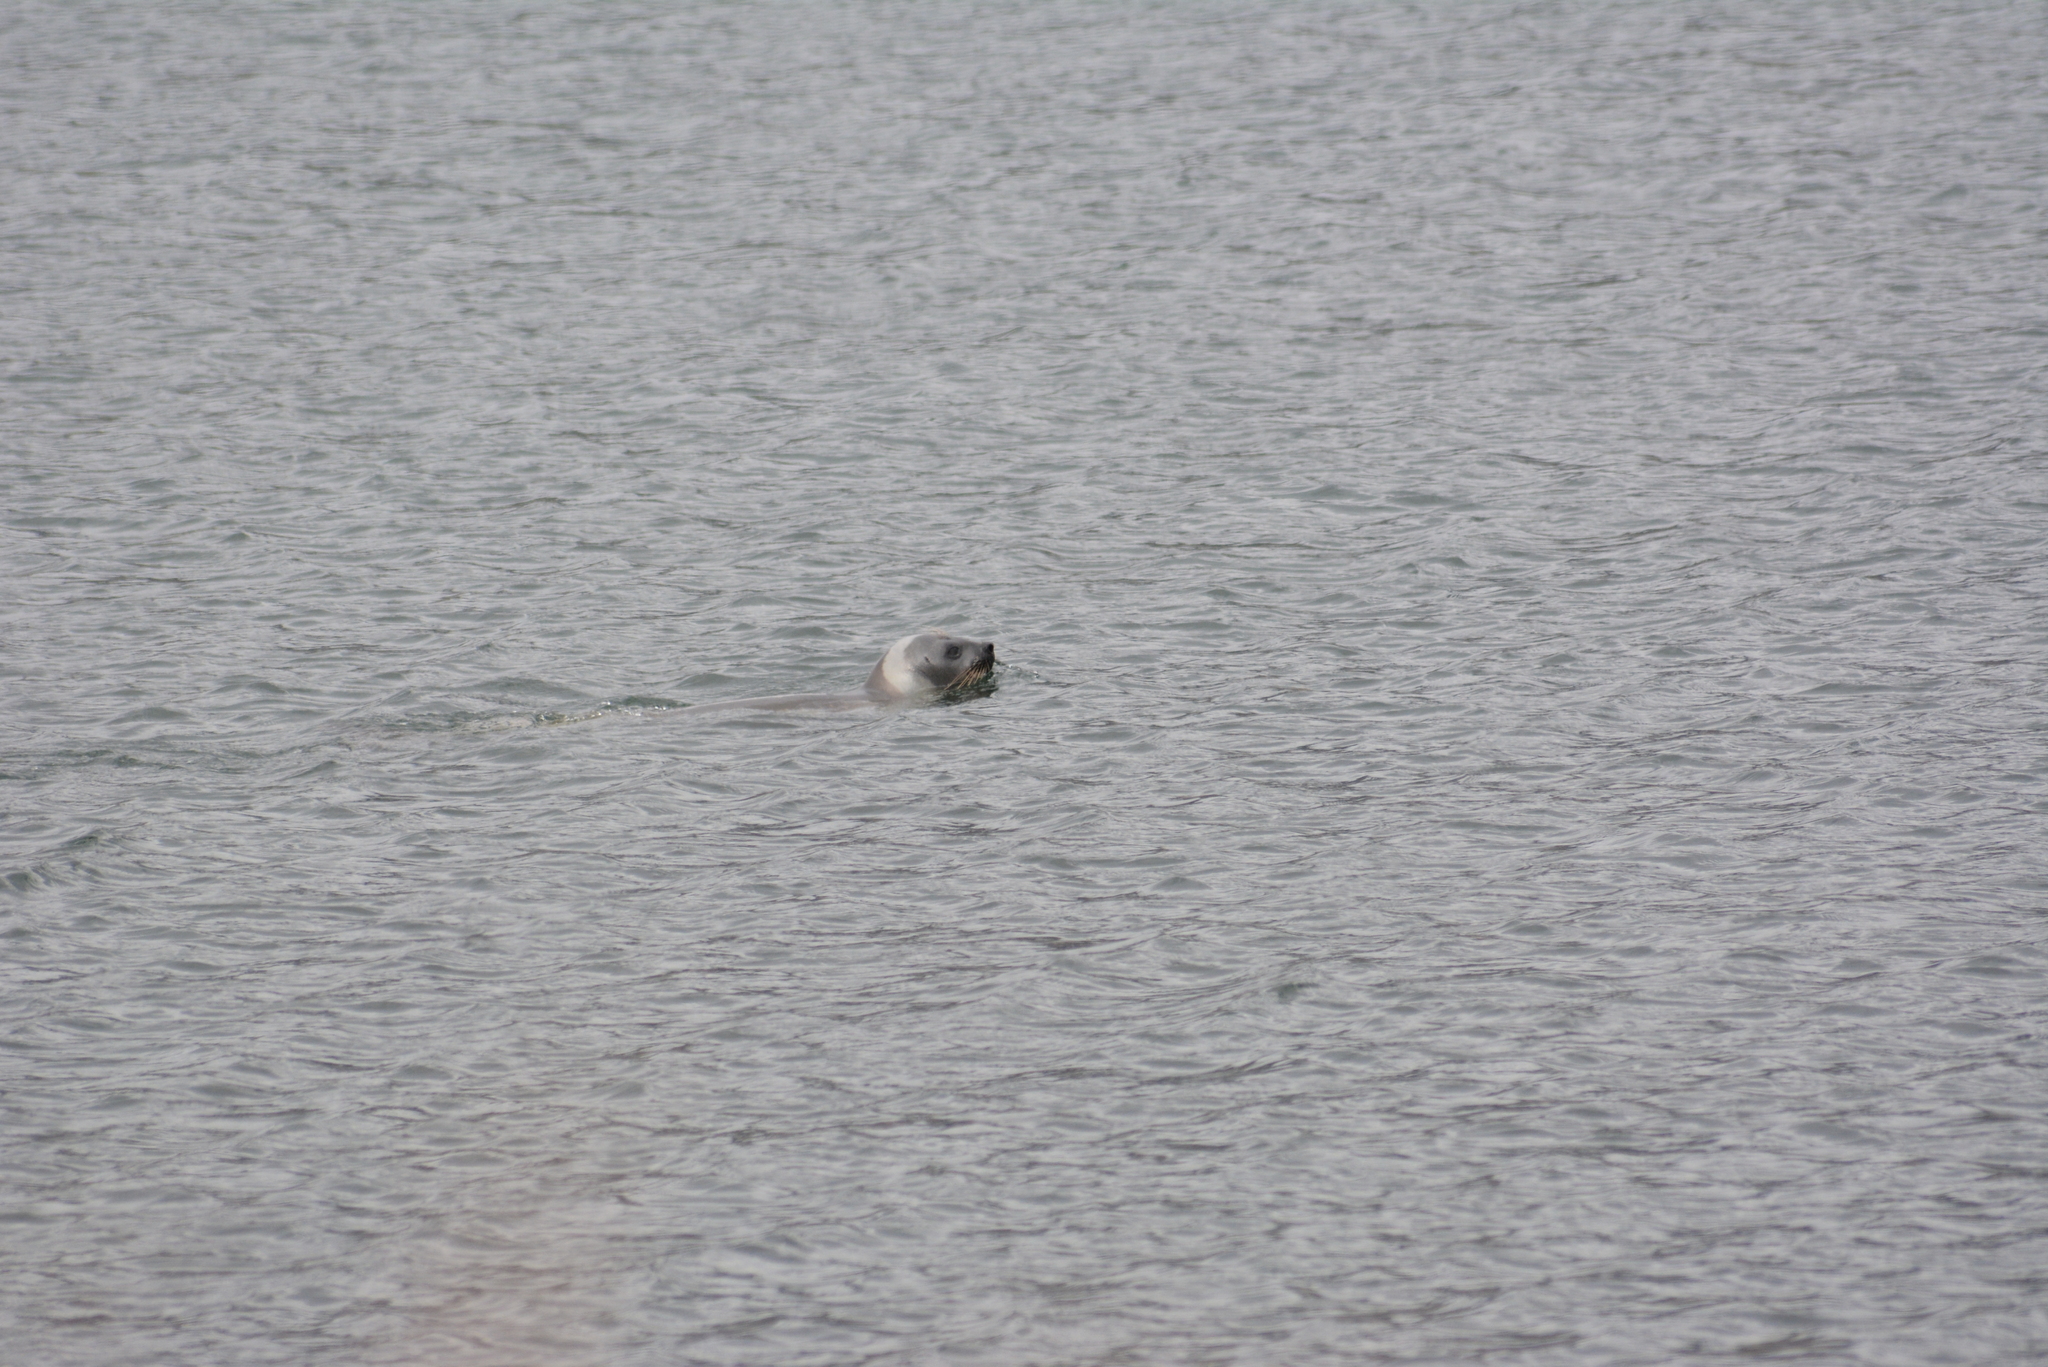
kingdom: Animalia
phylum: Chordata
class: Mammalia
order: Carnivora
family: Phocidae
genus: Histriophoca
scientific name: Histriophoca fasciata
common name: Ribbon seal
